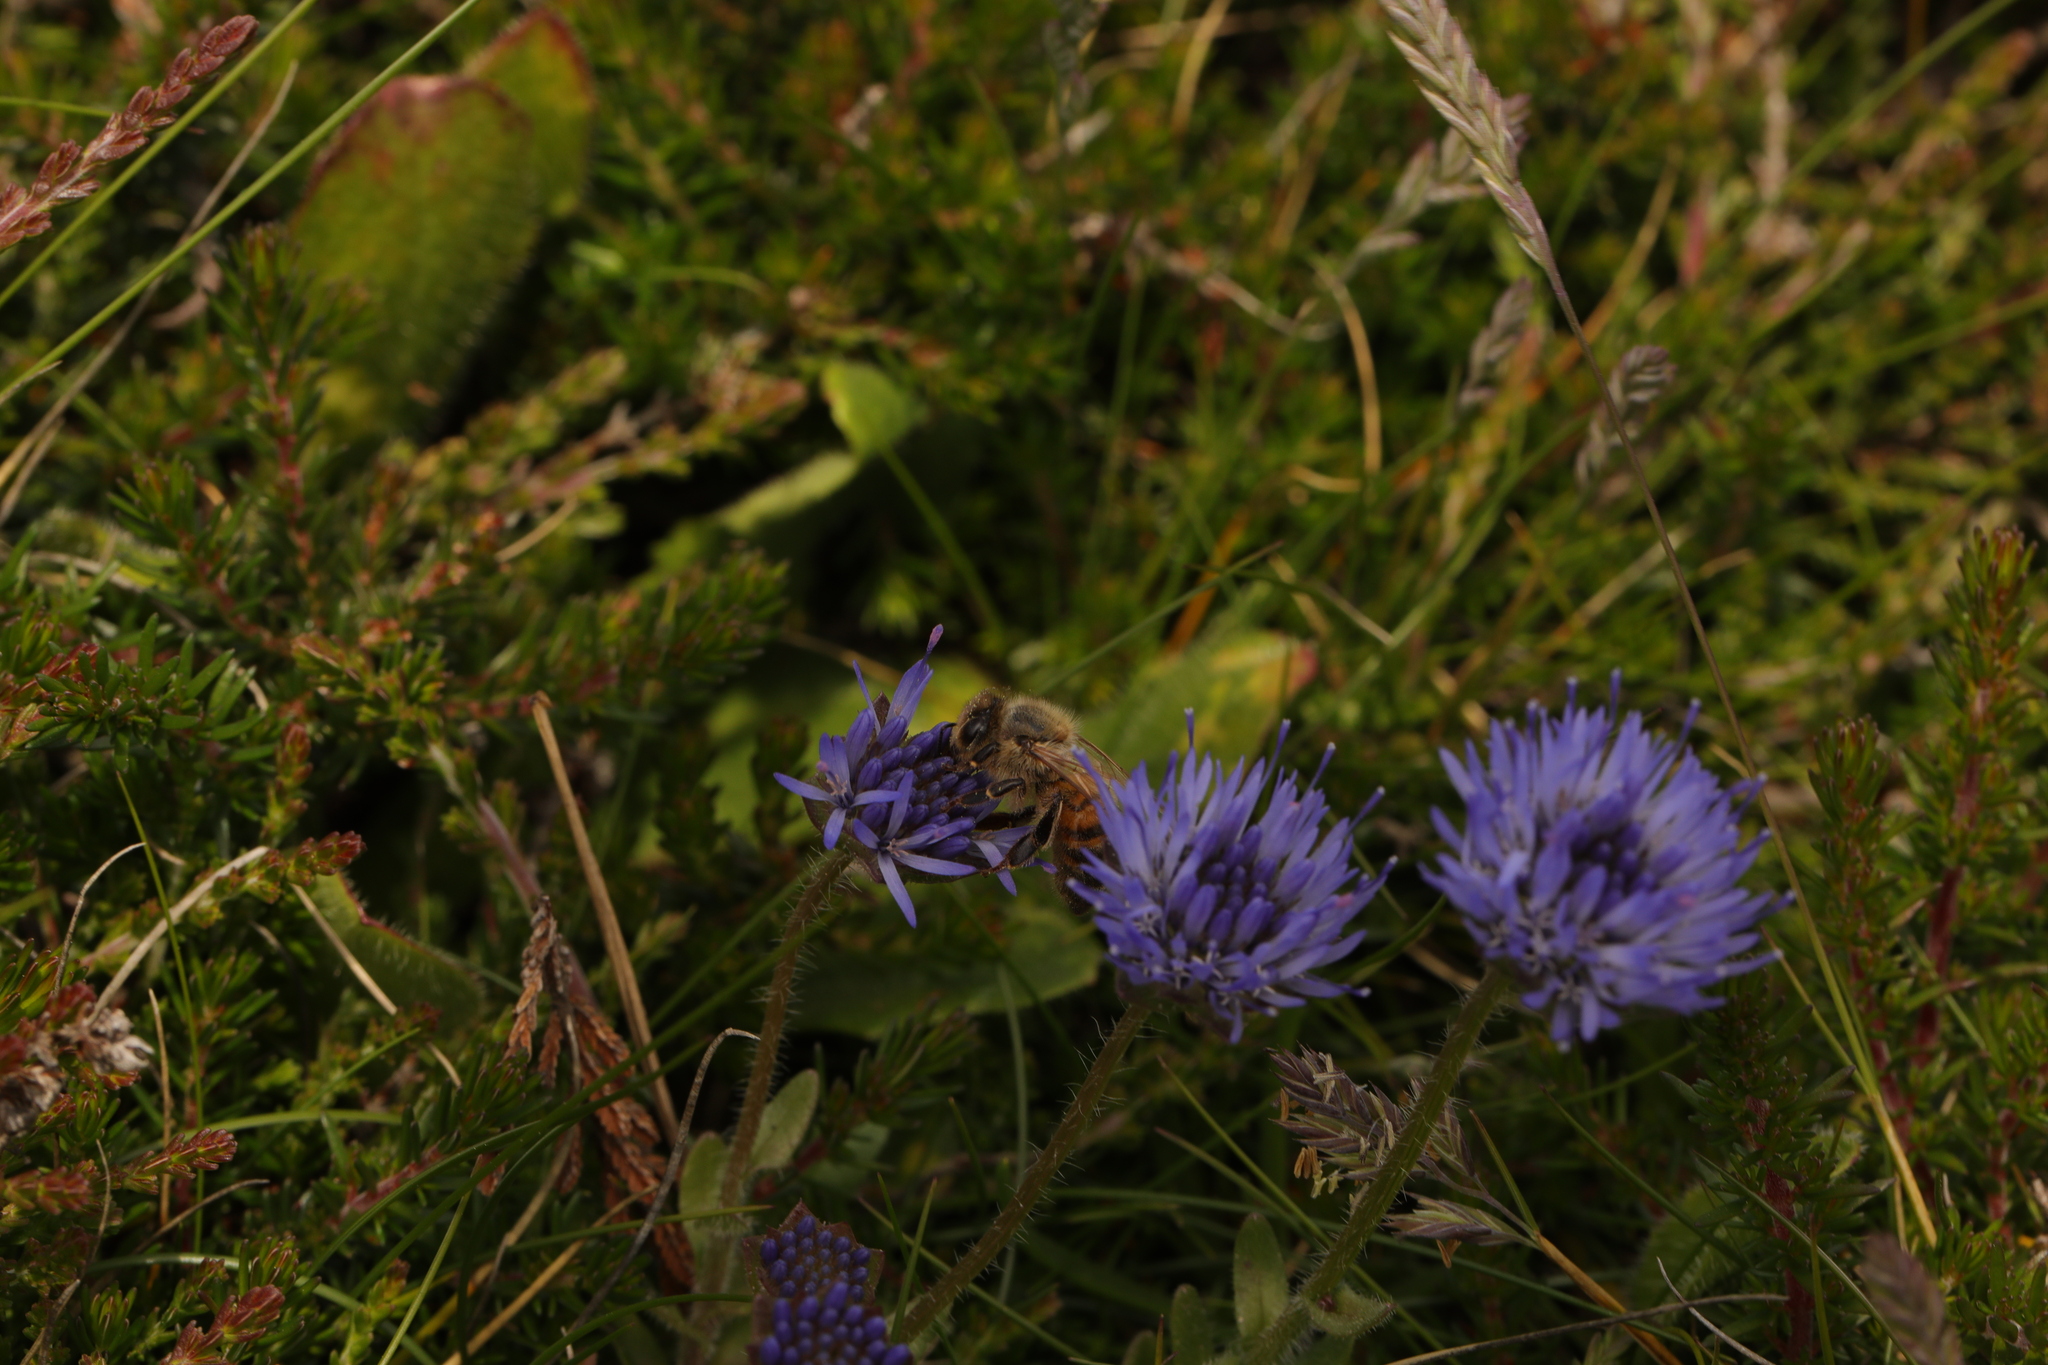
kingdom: Plantae
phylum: Tracheophyta
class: Magnoliopsida
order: Asterales
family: Campanulaceae
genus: Jasione
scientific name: Jasione montana
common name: Sheep's-bit
